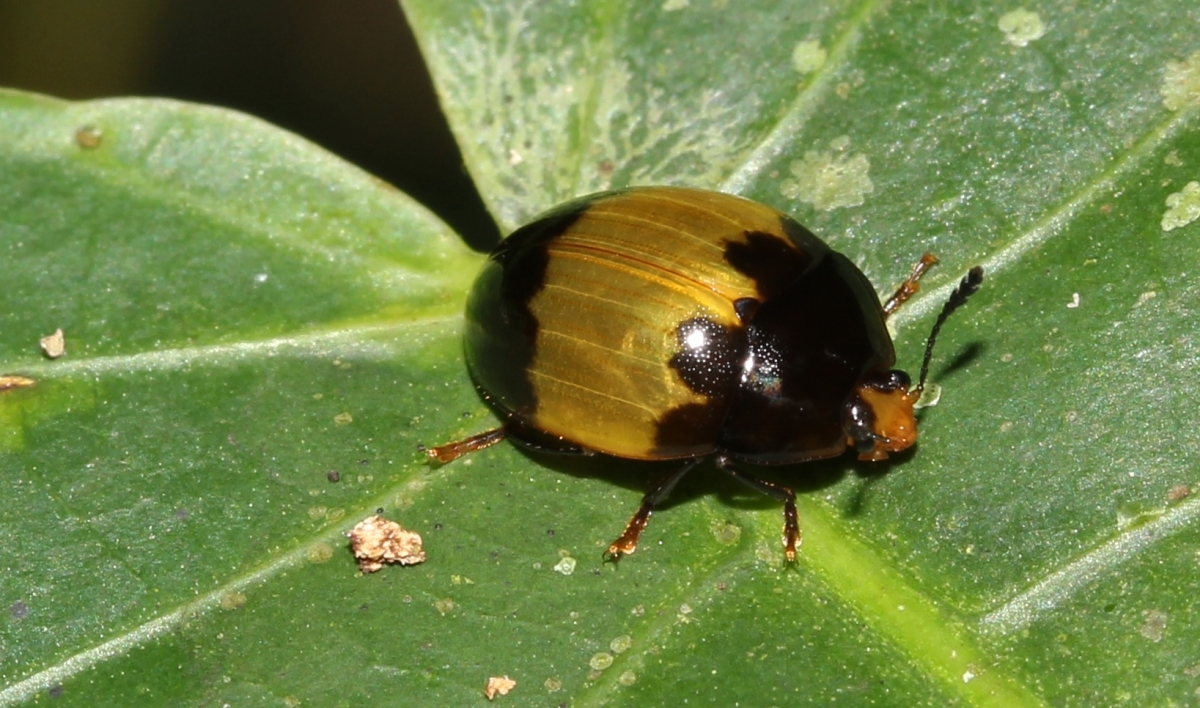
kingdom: Animalia
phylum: Arthropoda
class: Insecta
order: Coleoptera
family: Erotylidae
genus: Iphiclus
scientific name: Iphiclus
